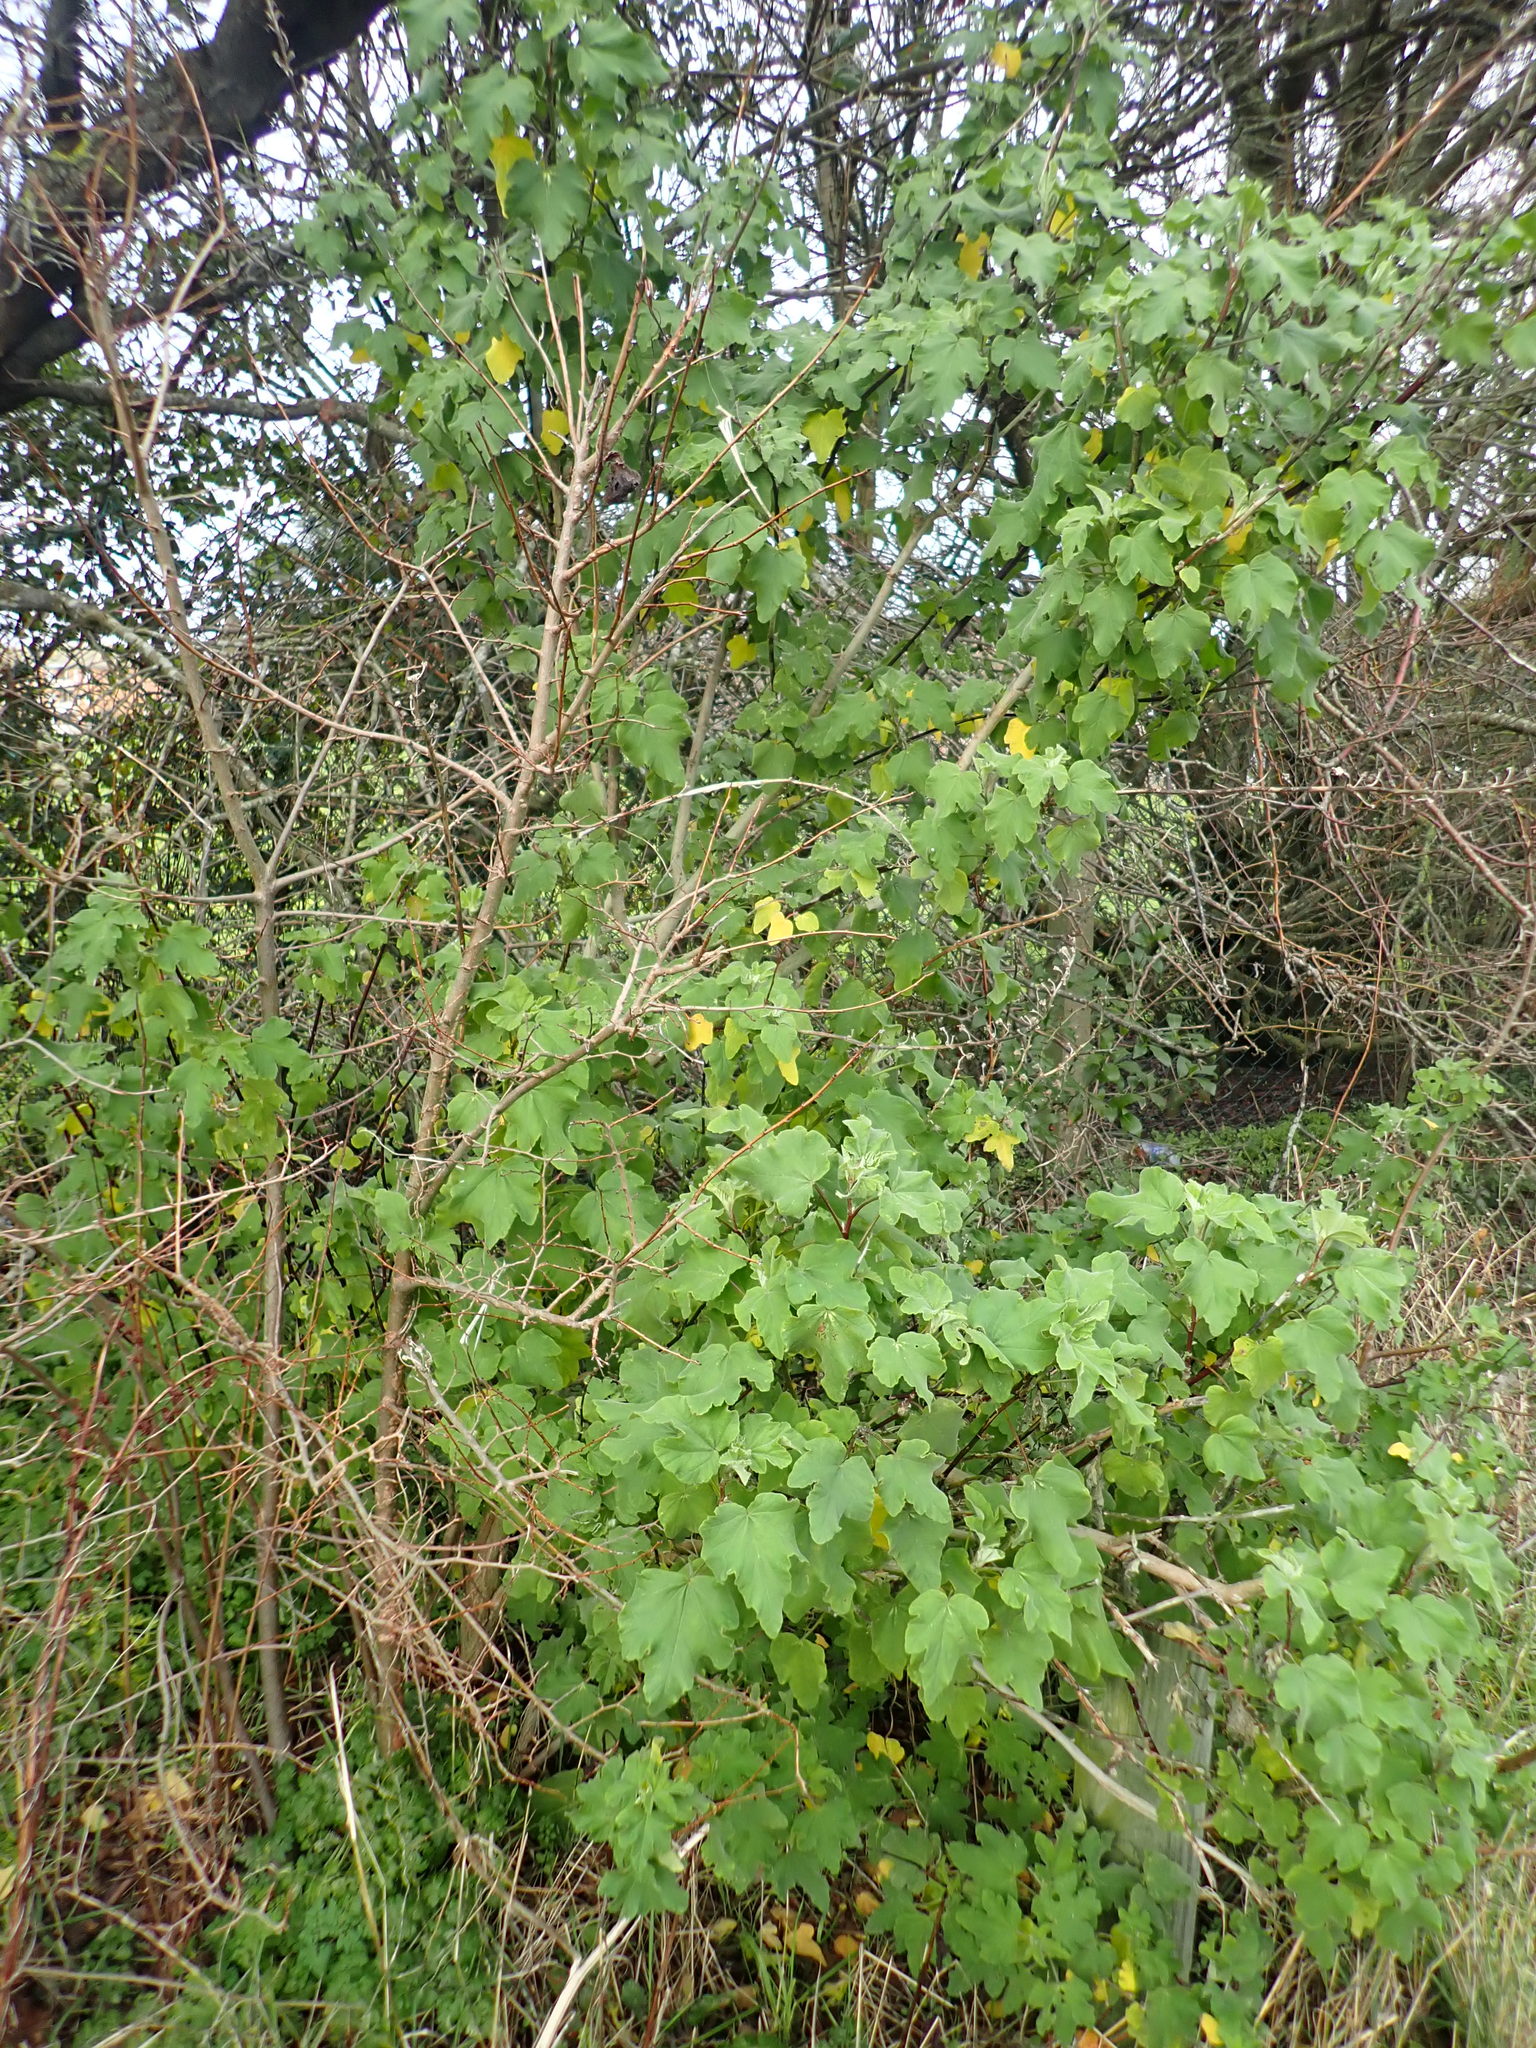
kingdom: Plantae
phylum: Tracheophyta
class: Magnoliopsida
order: Malvales
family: Malvaceae
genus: Malva
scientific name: Malva clementii
